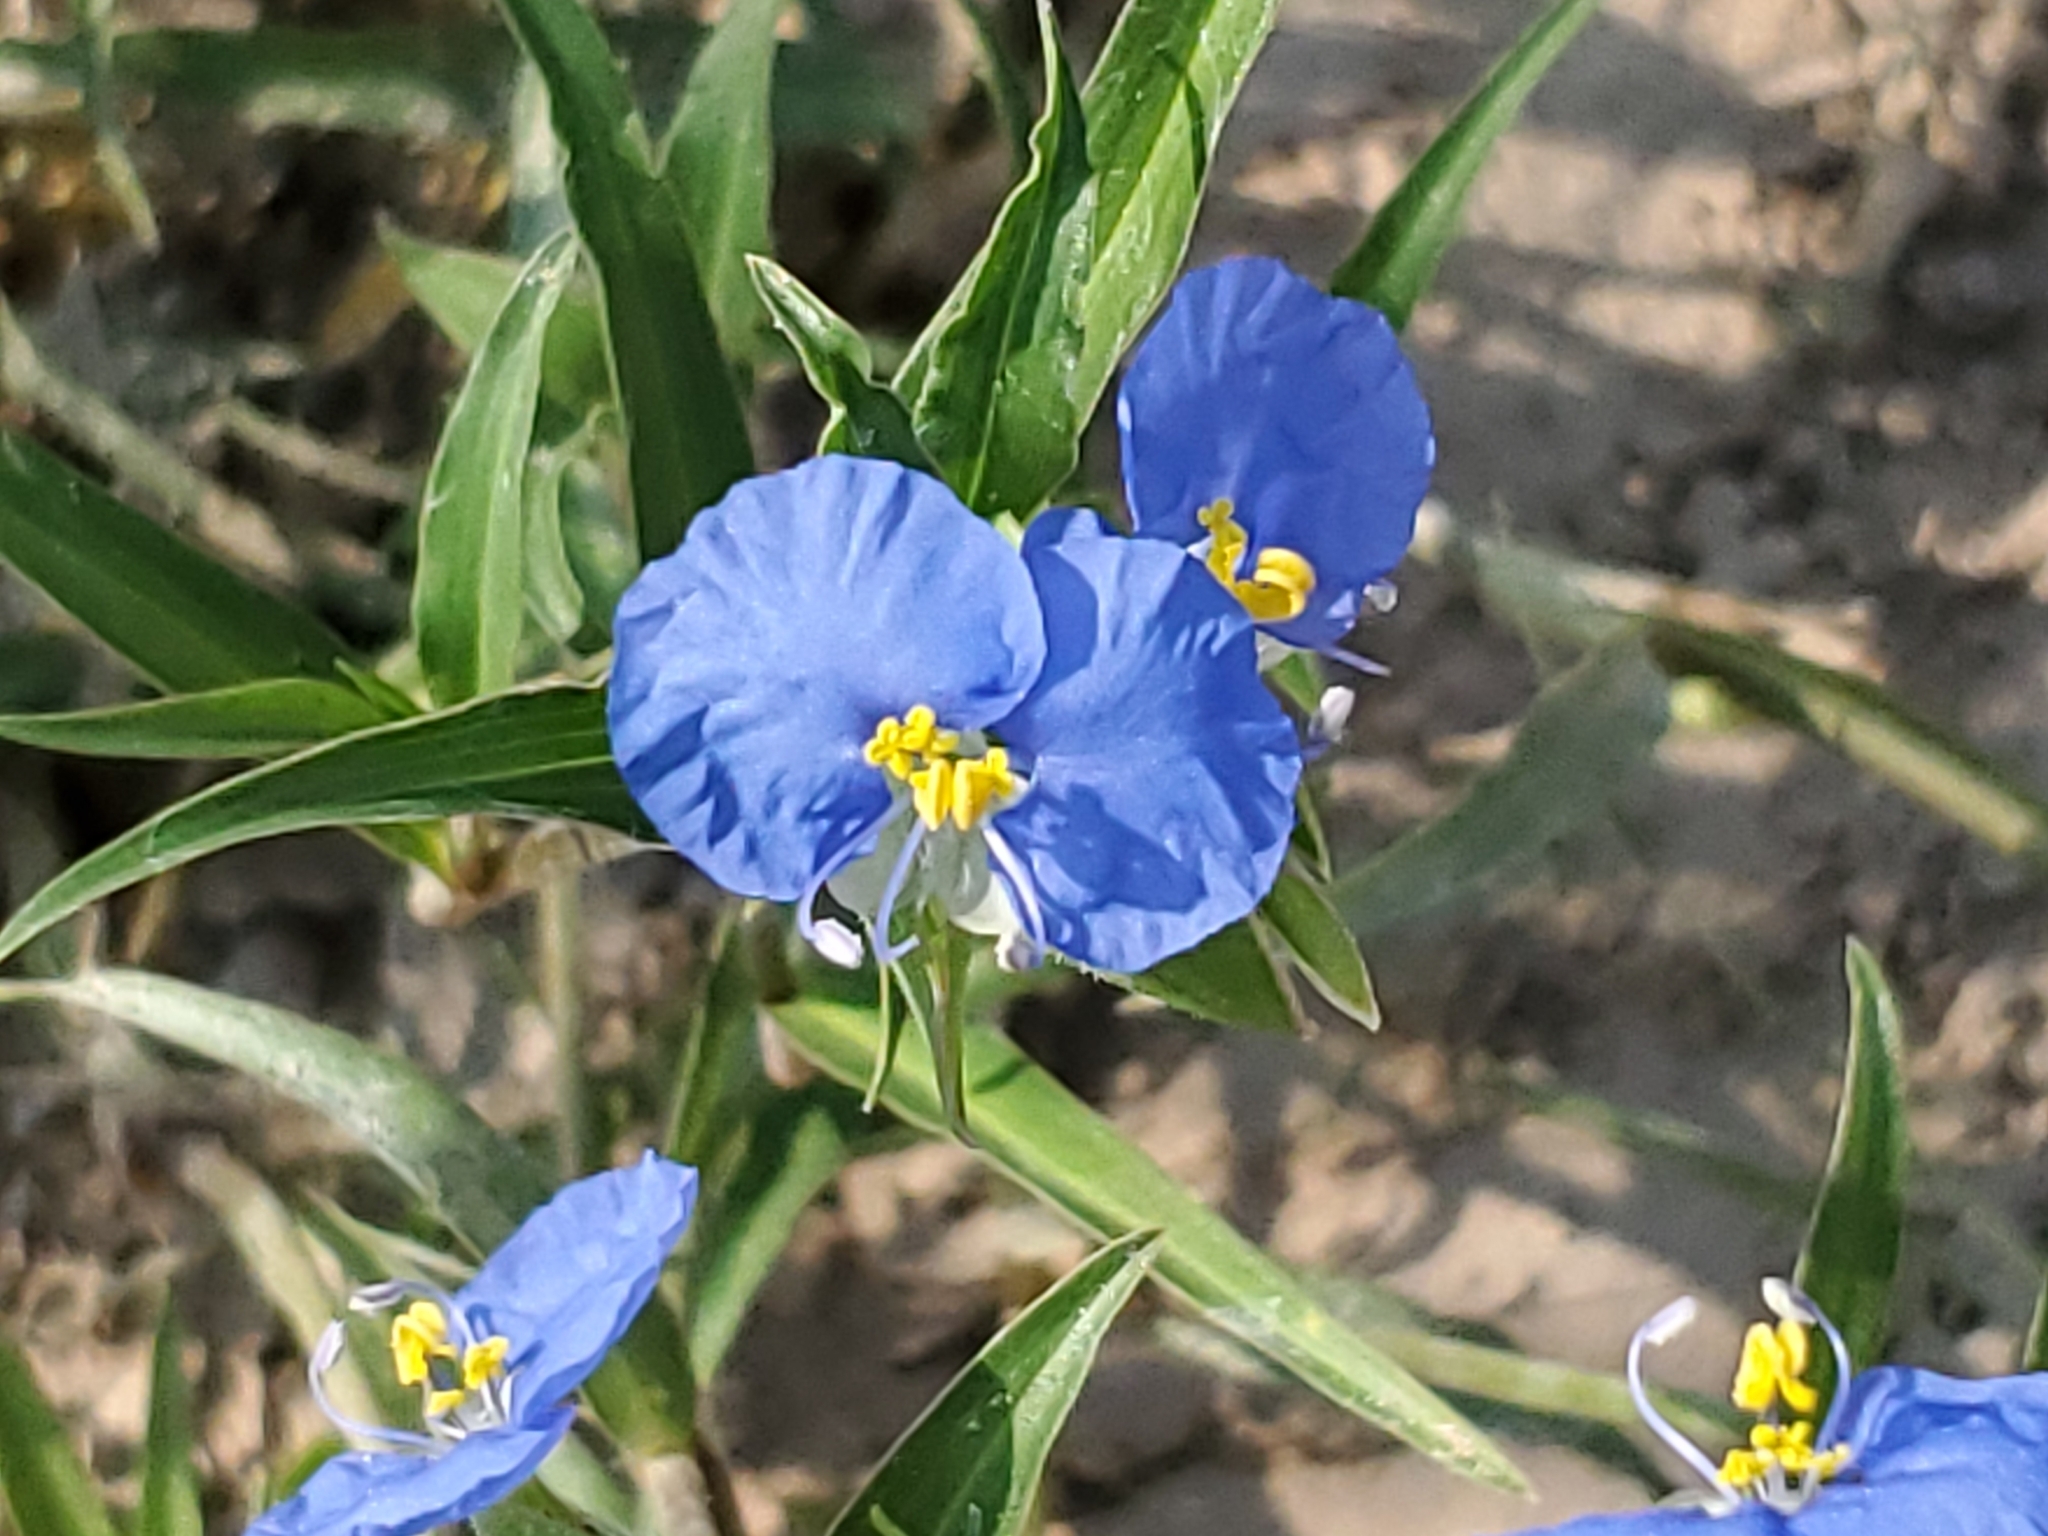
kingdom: Plantae
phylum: Tracheophyta
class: Liliopsida
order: Commelinales
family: Commelinaceae
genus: Commelina
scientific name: Commelina erecta
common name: Blousel blommetjie
